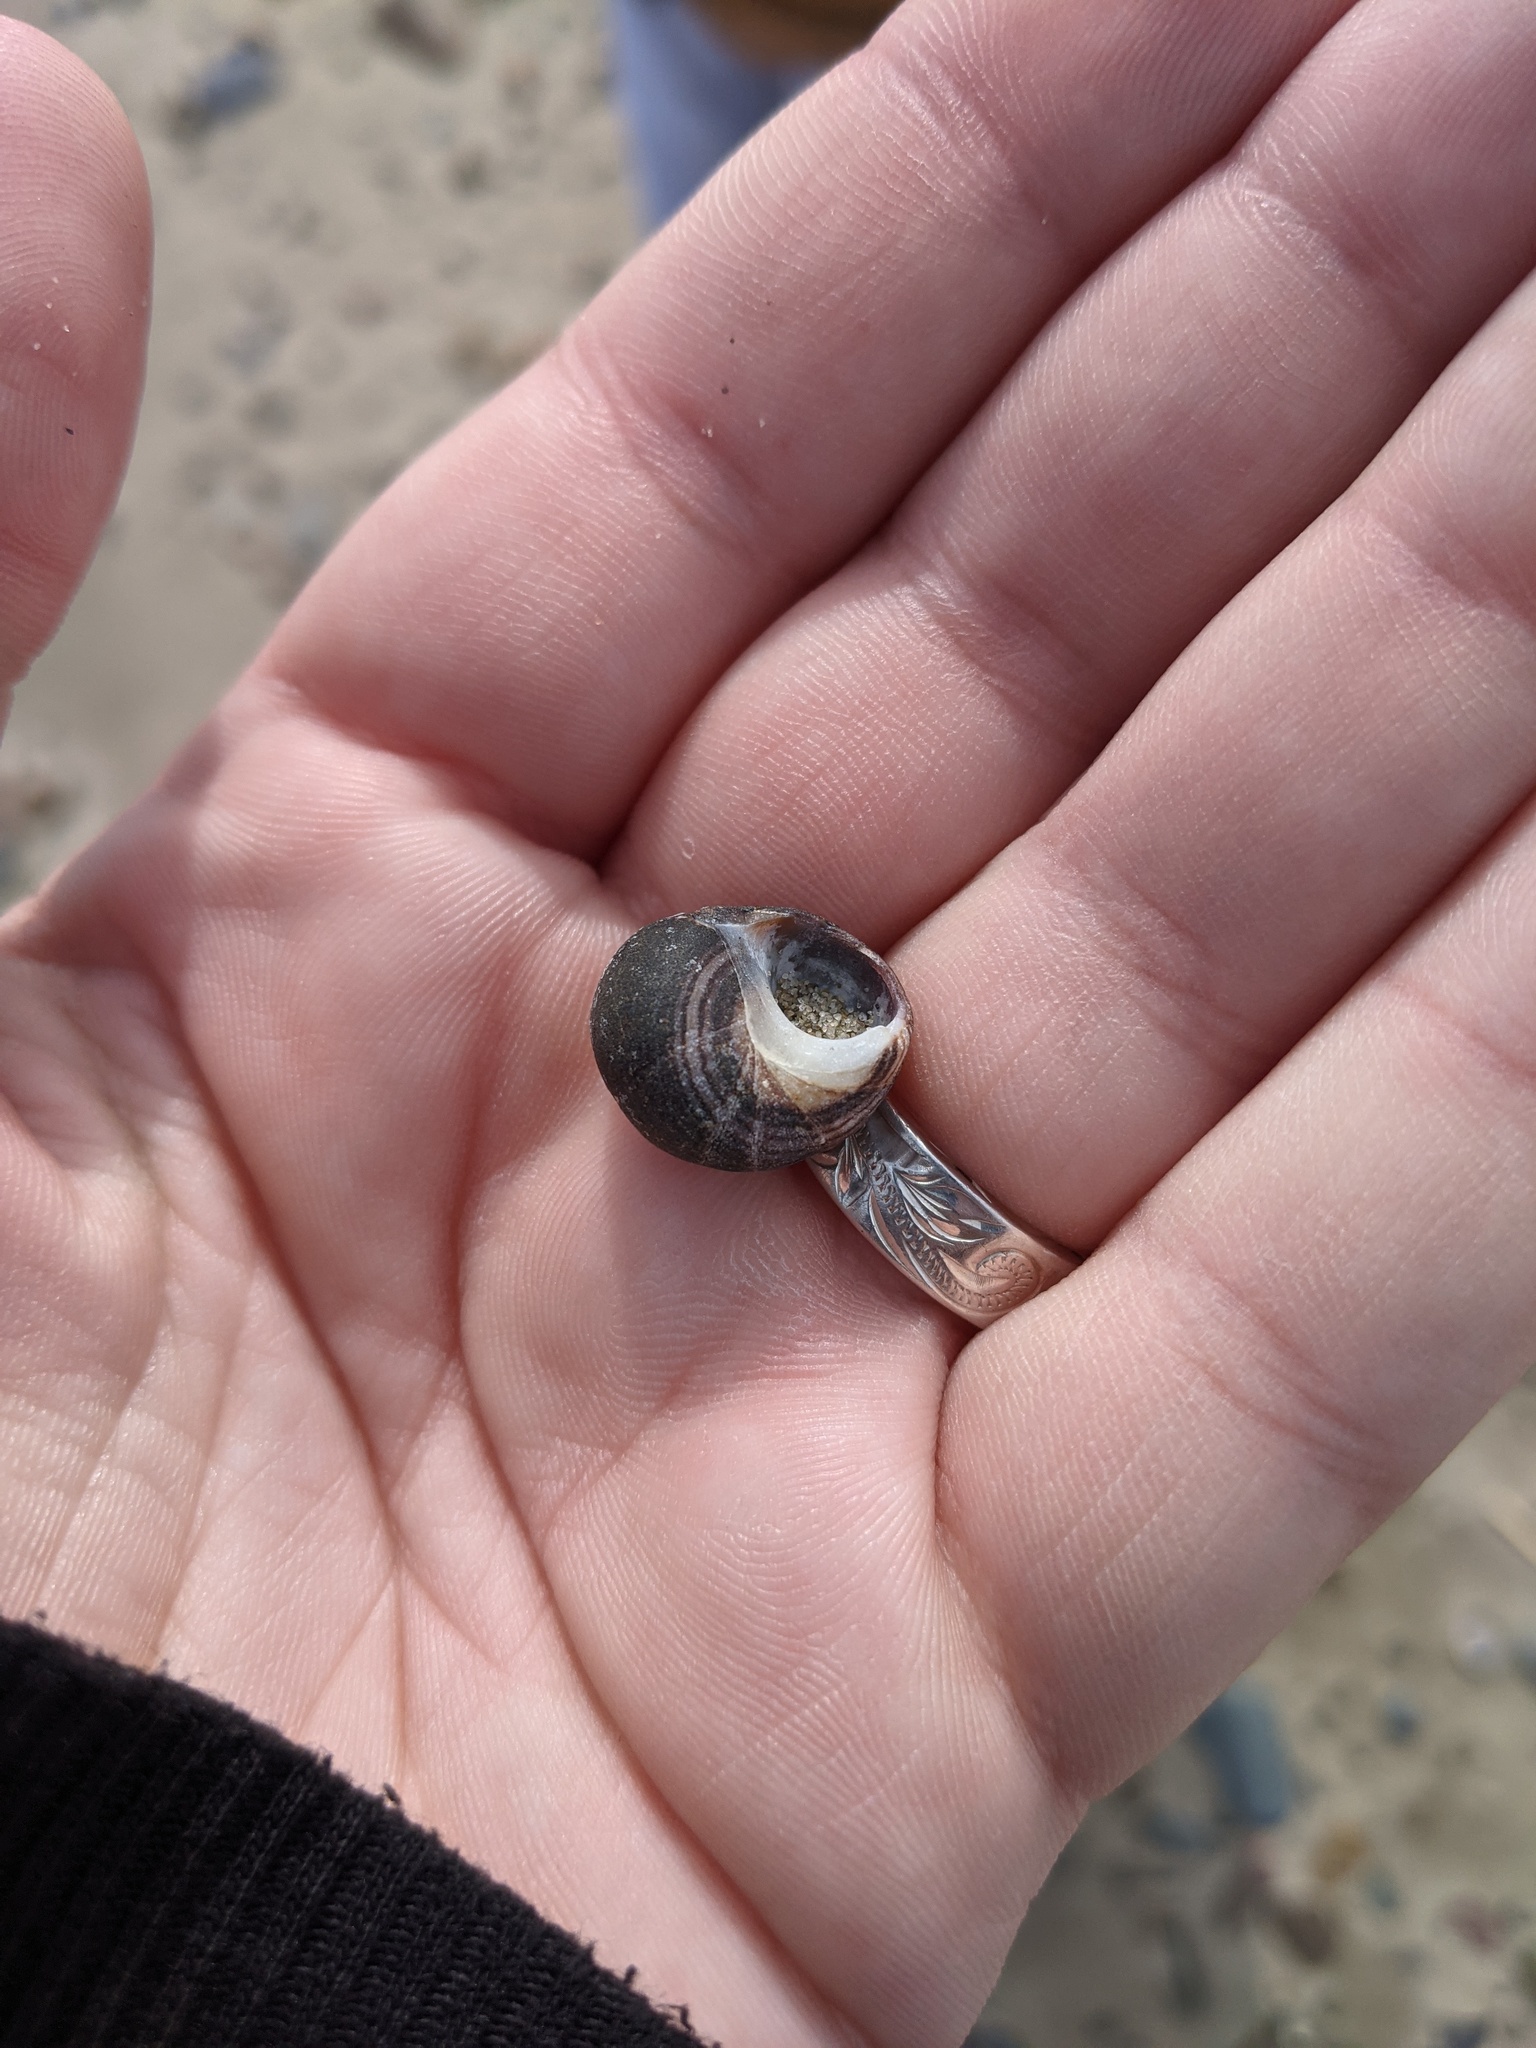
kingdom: Animalia
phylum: Mollusca
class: Gastropoda
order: Littorinimorpha
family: Littorinidae
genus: Littorina
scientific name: Littorina littorea
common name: Common periwinkle
